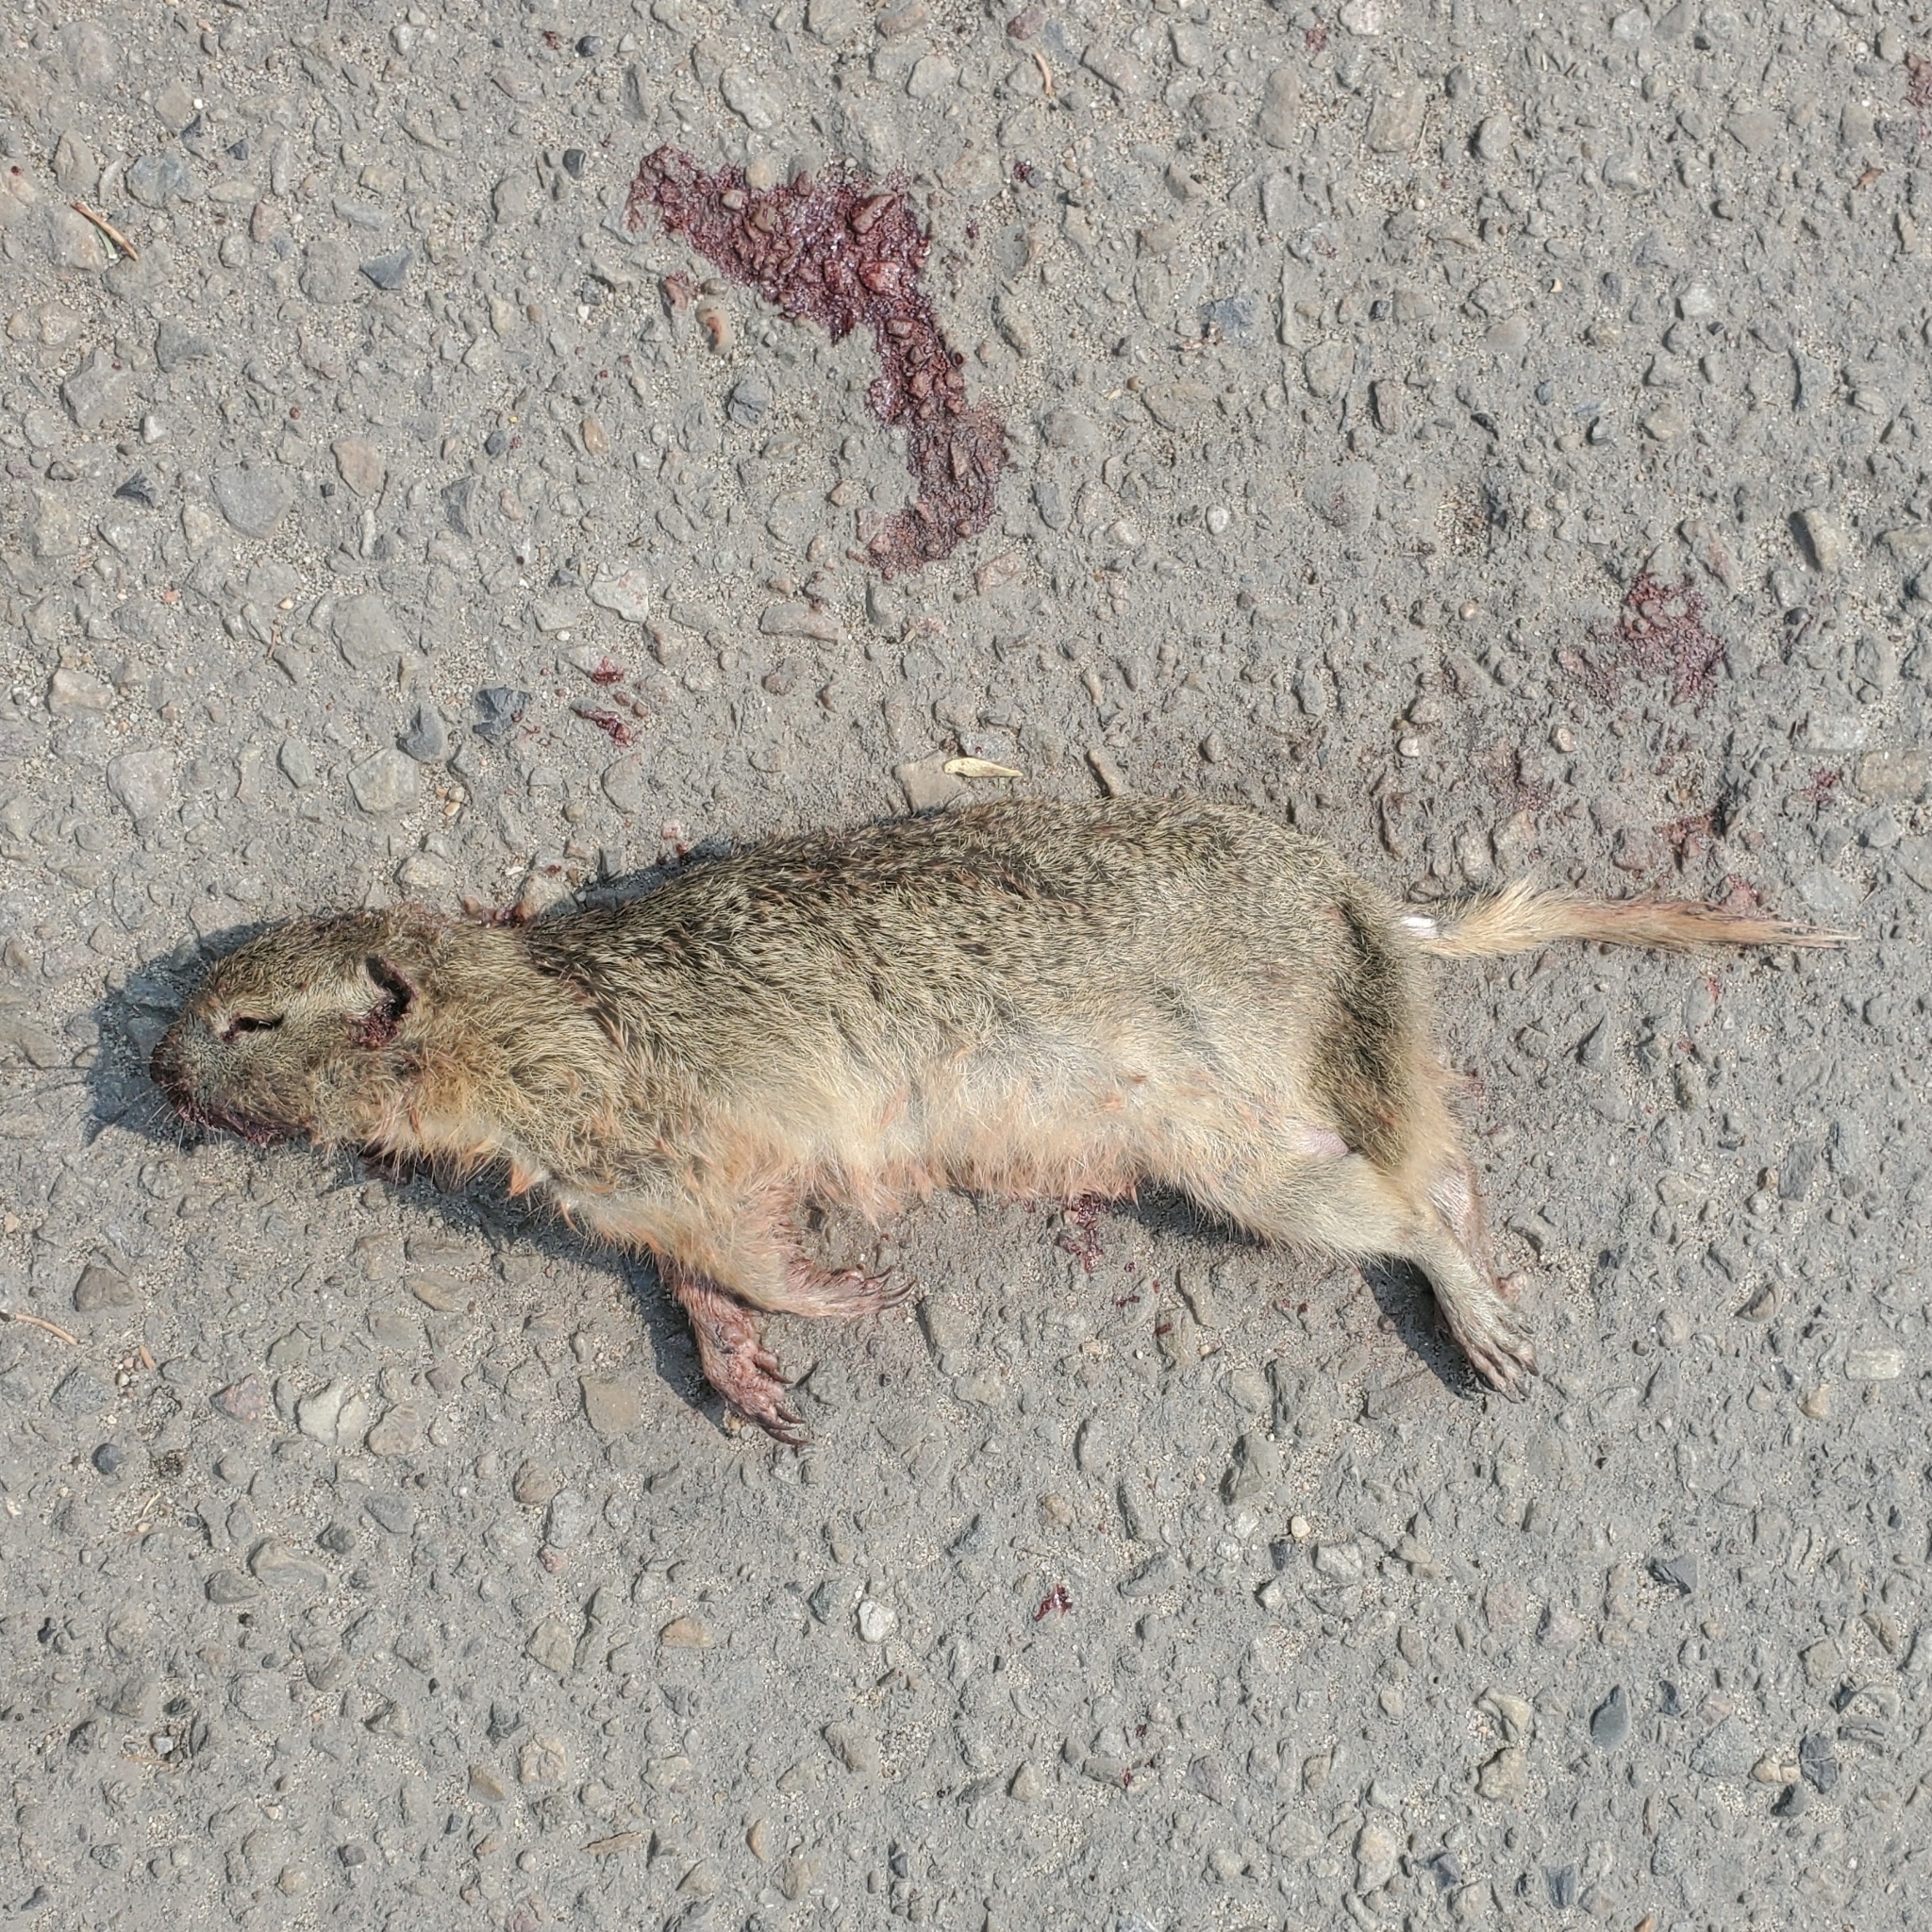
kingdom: Animalia
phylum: Chordata
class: Mammalia
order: Rodentia
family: Sciuridae
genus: Urocitellus
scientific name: Urocitellus richardsonii
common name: Richardson's ground squirrel
